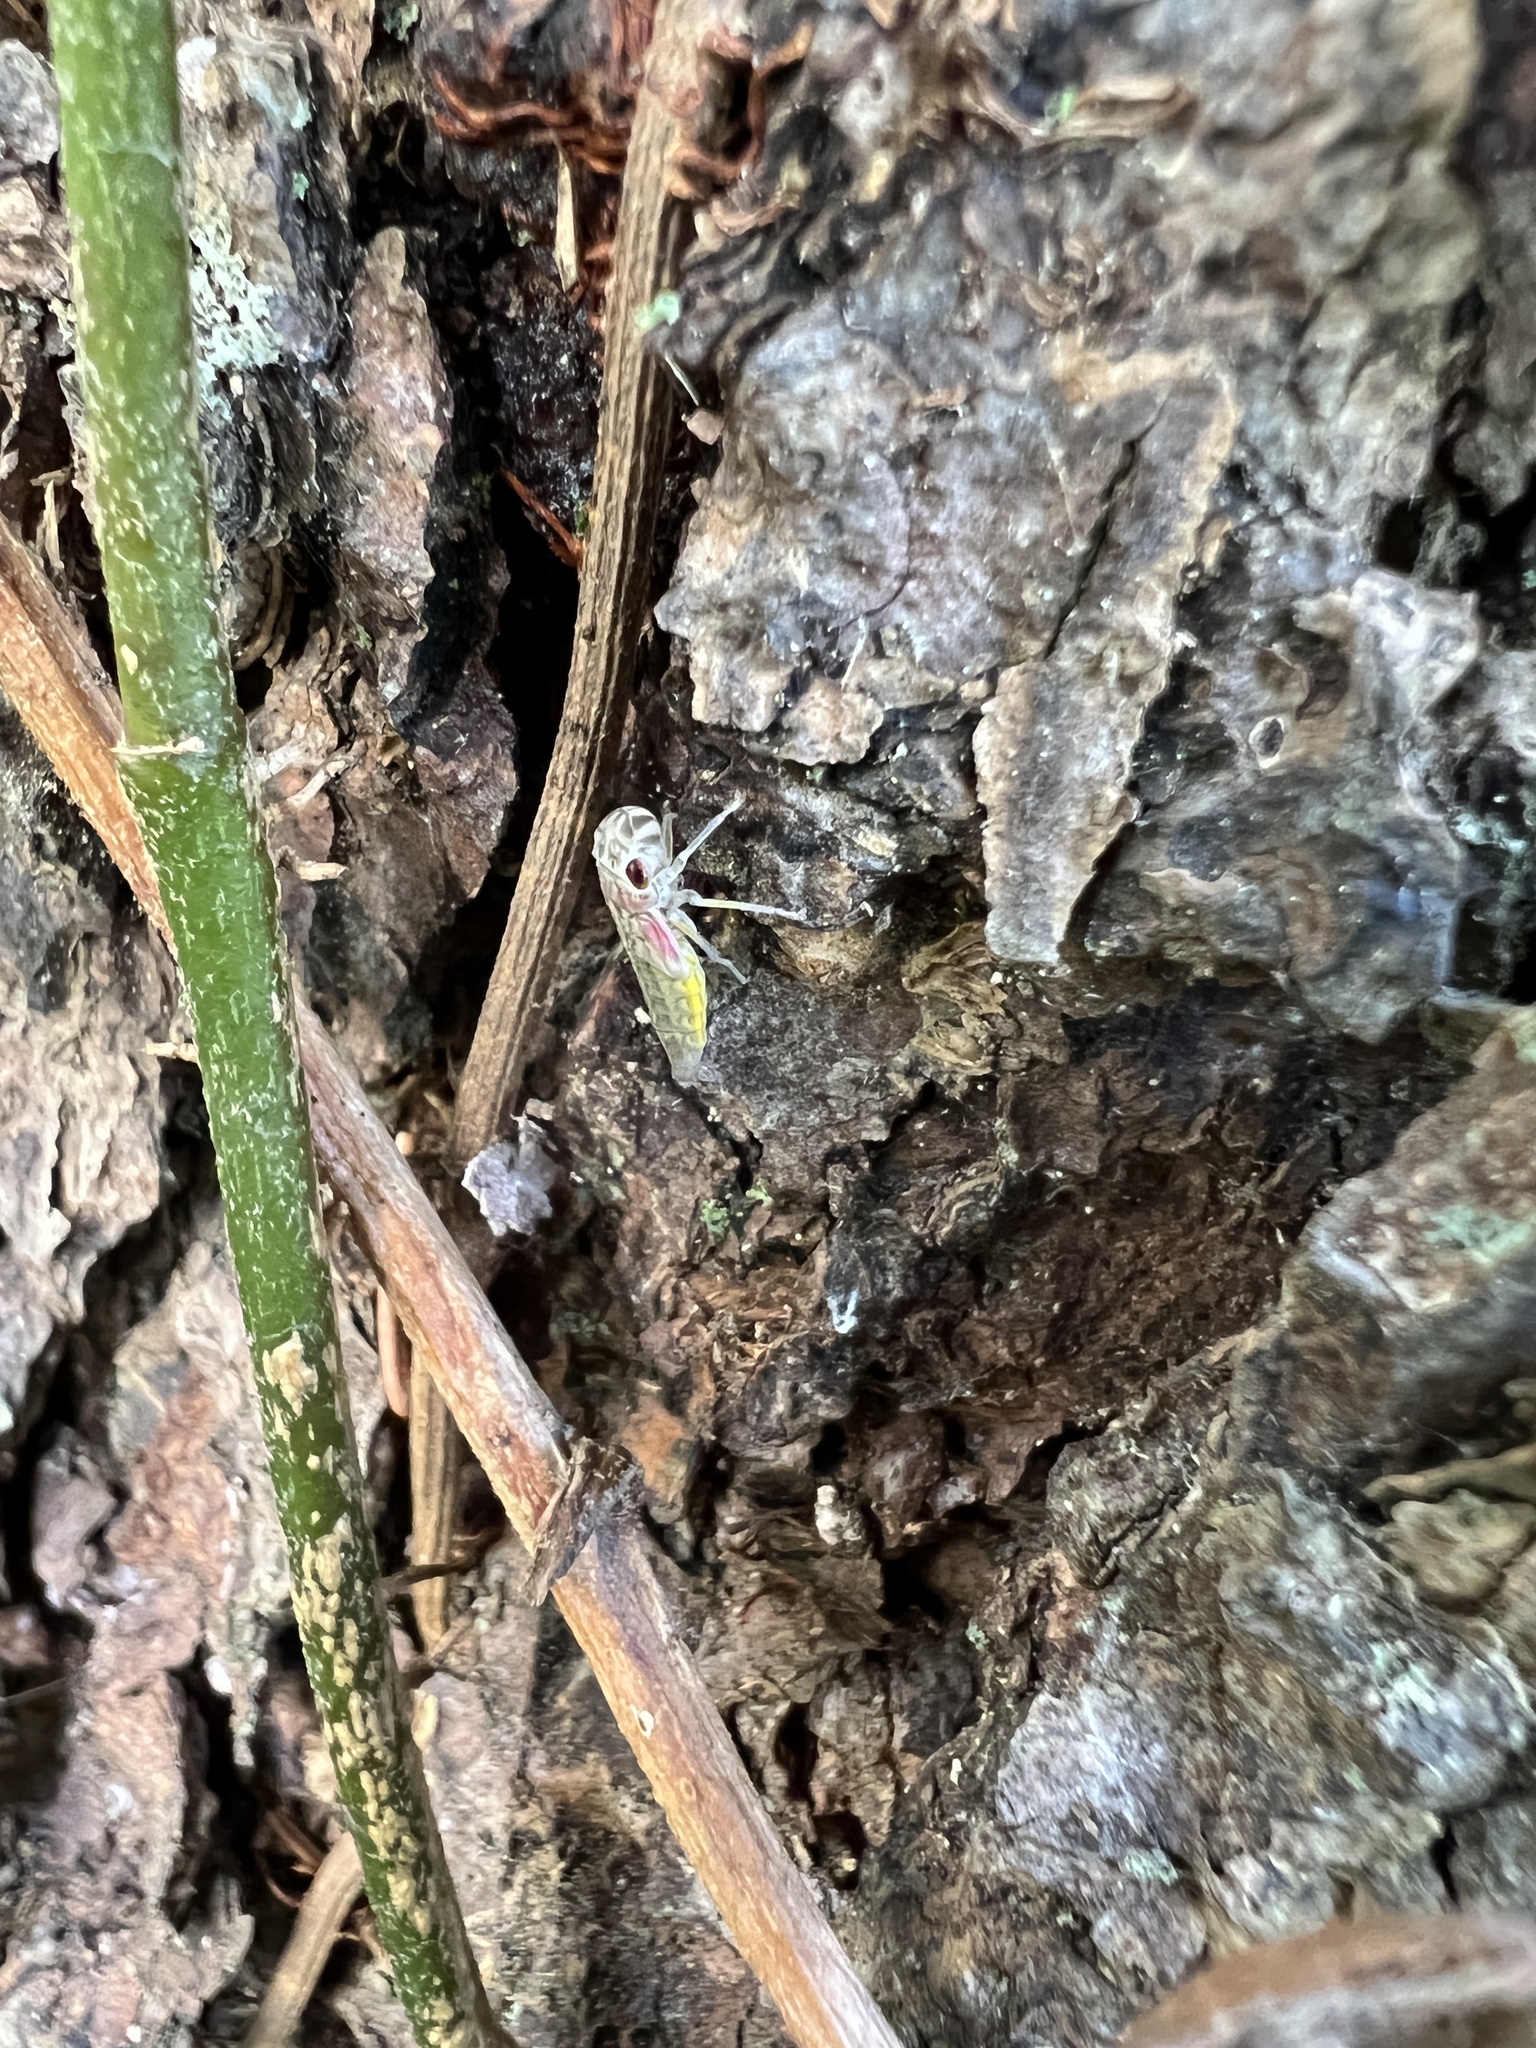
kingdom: Animalia
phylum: Arthropoda
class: Insecta
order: Hemiptera
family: Cicadellidae
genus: Oncometopia
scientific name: Oncometopia orbona
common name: Broad-headed sharpshooter
